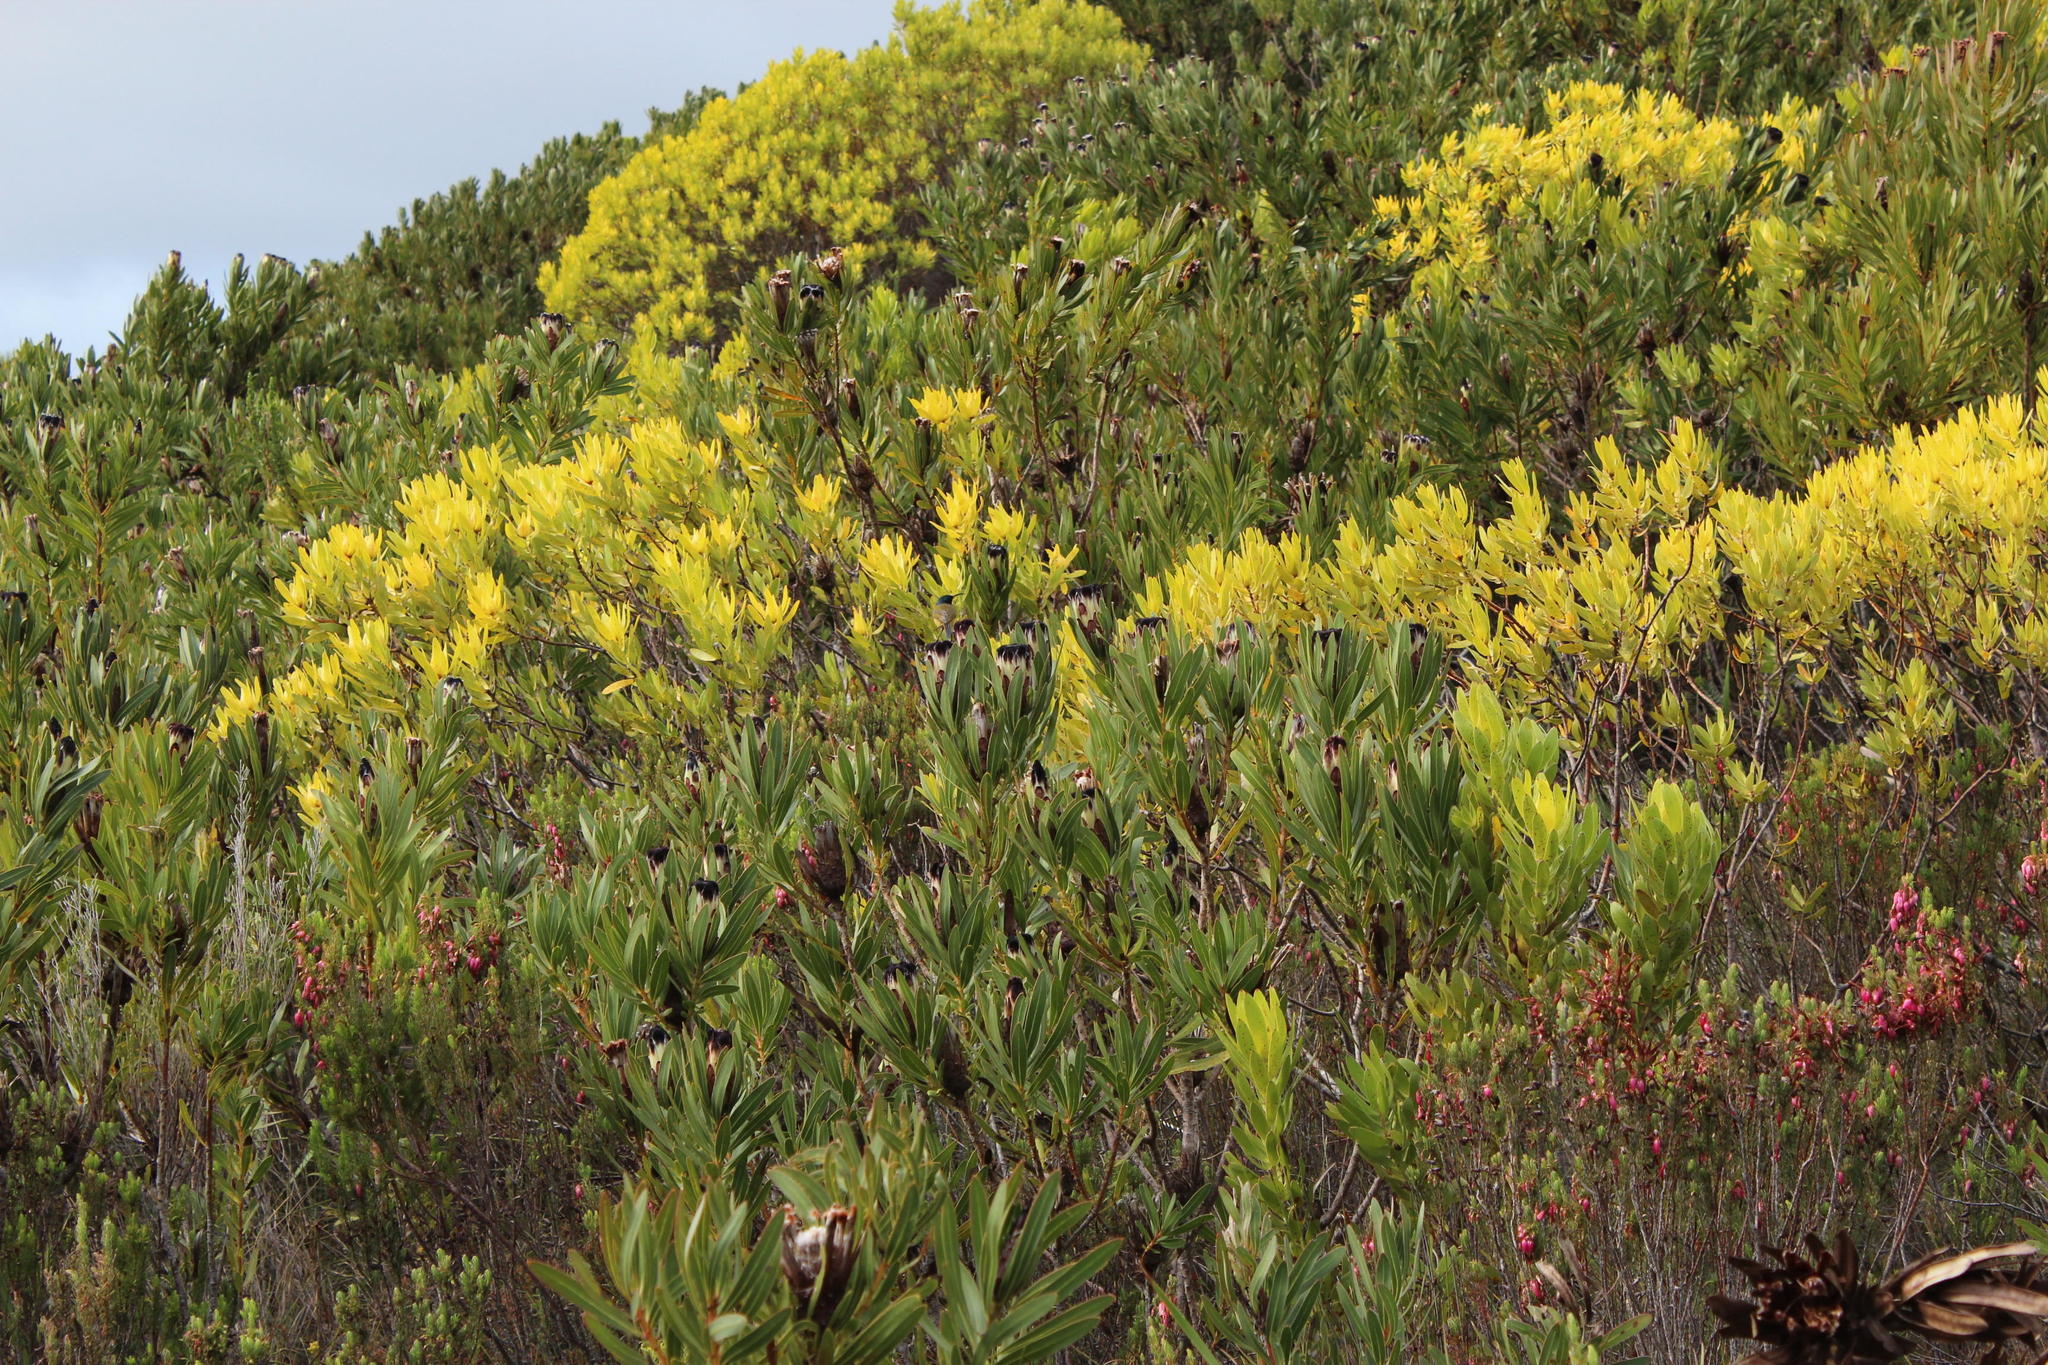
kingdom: Plantae
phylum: Tracheophyta
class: Magnoliopsida
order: Proteales
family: Proteaceae
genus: Protea
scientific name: Protea lepidocarpodendron
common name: Black-bearded protea
